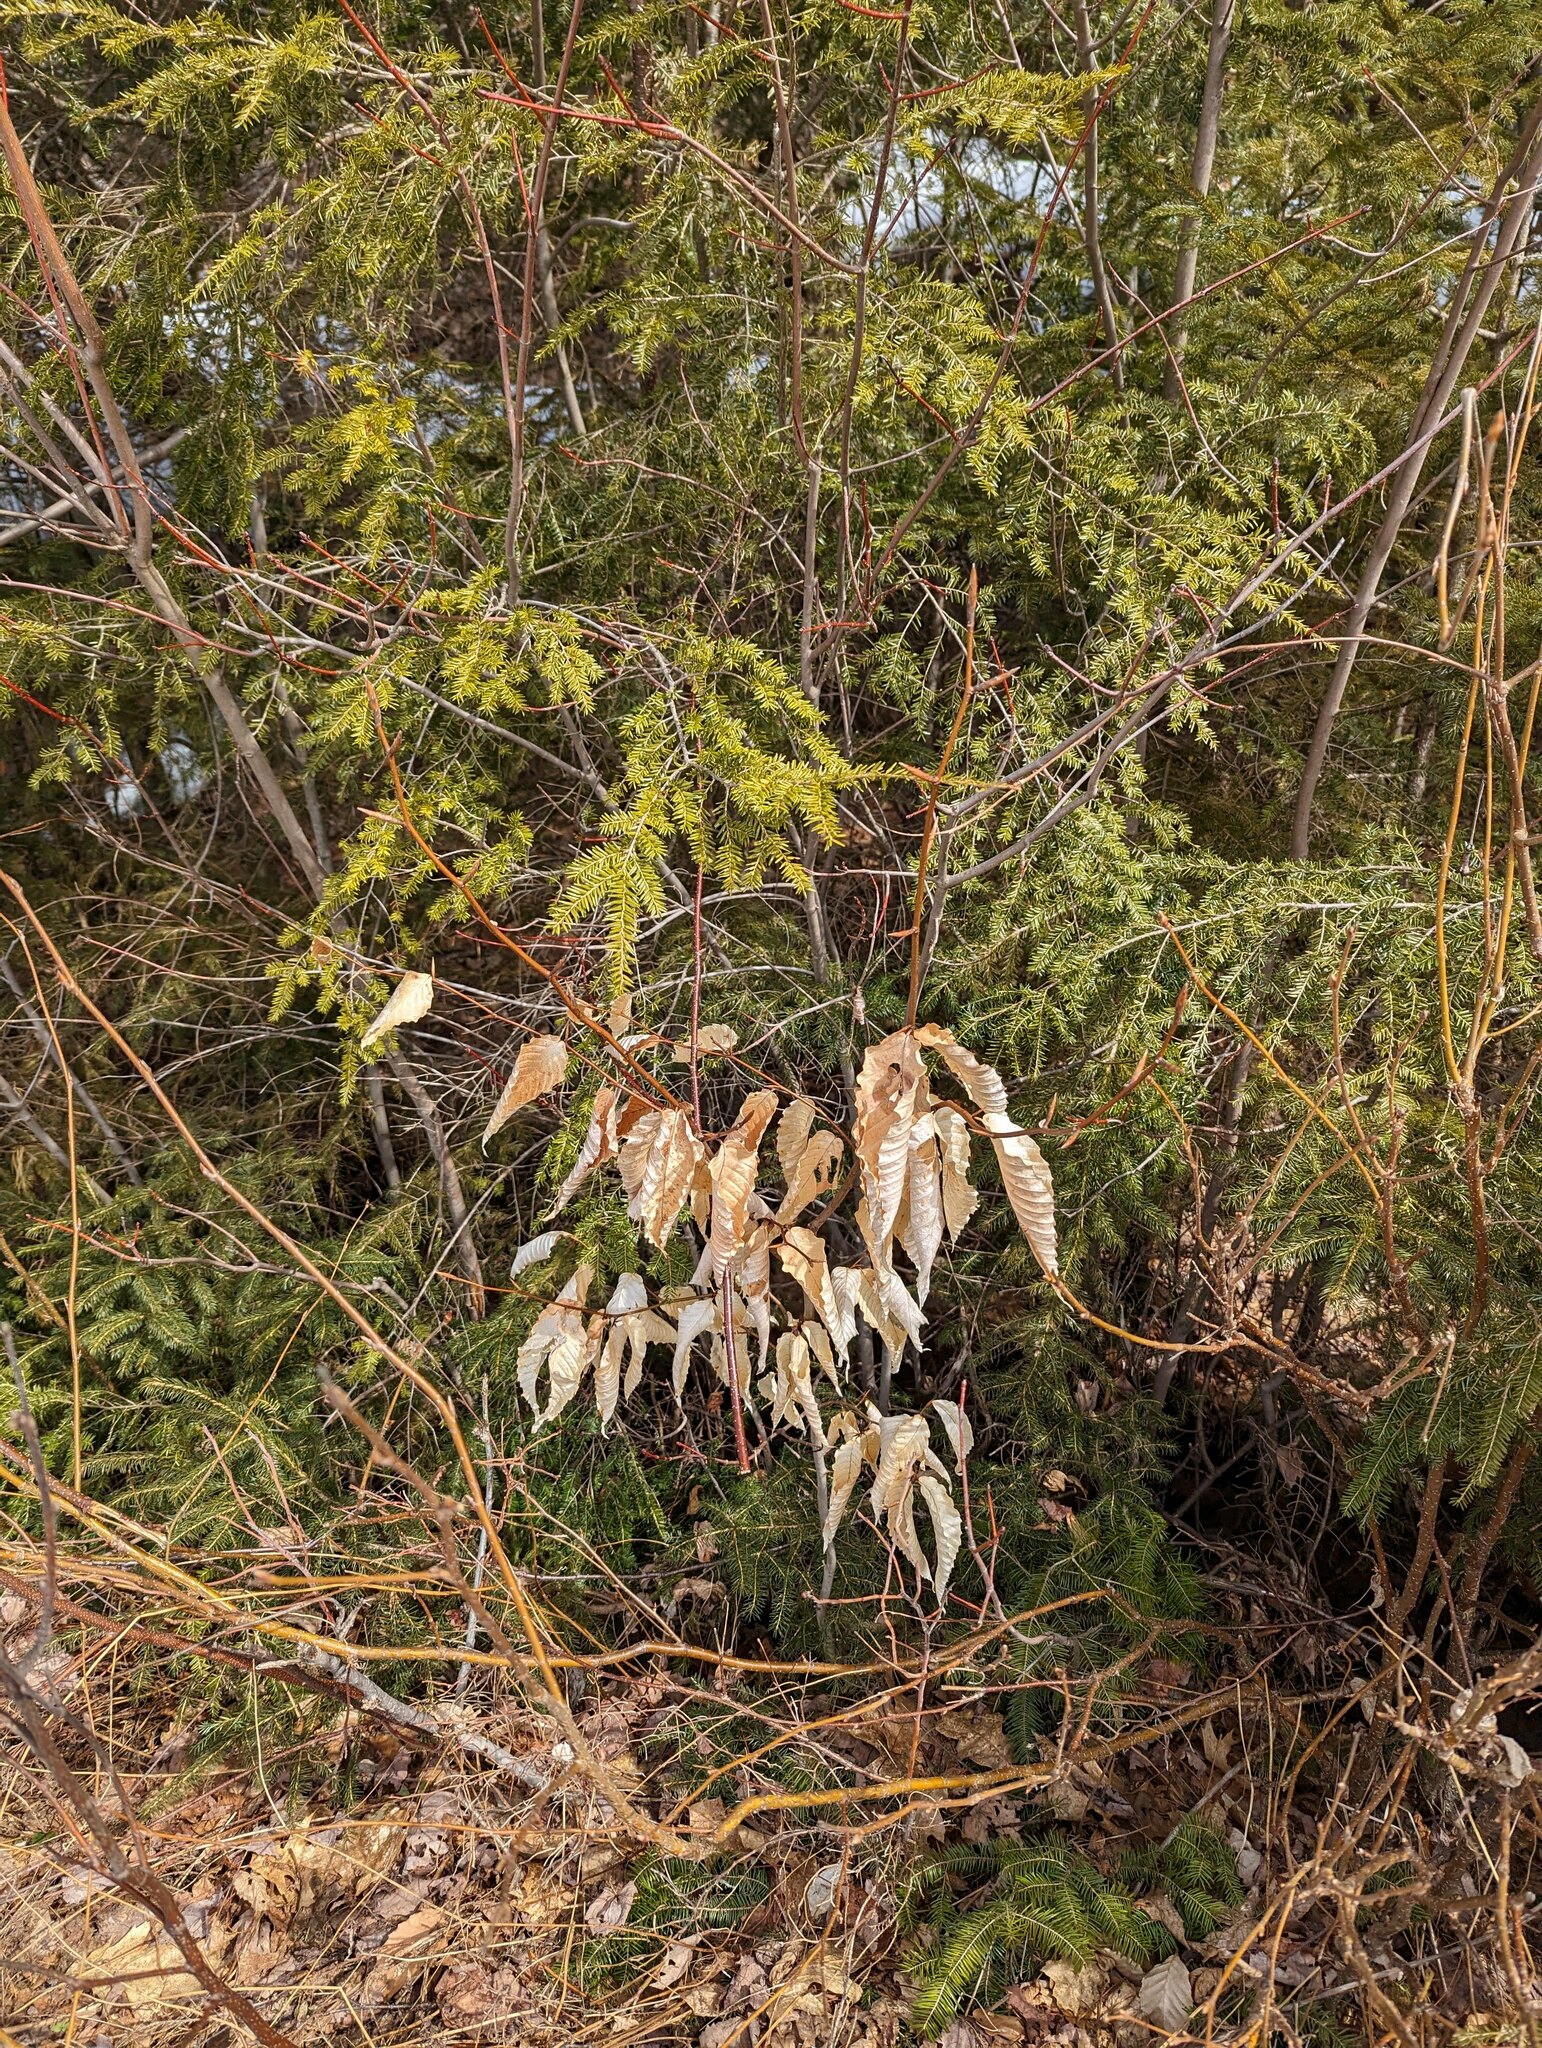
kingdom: Plantae
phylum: Tracheophyta
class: Magnoliopsida
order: Fagales
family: Fagaceae
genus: Fagus
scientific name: Fagus grandifolia
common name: American beech
